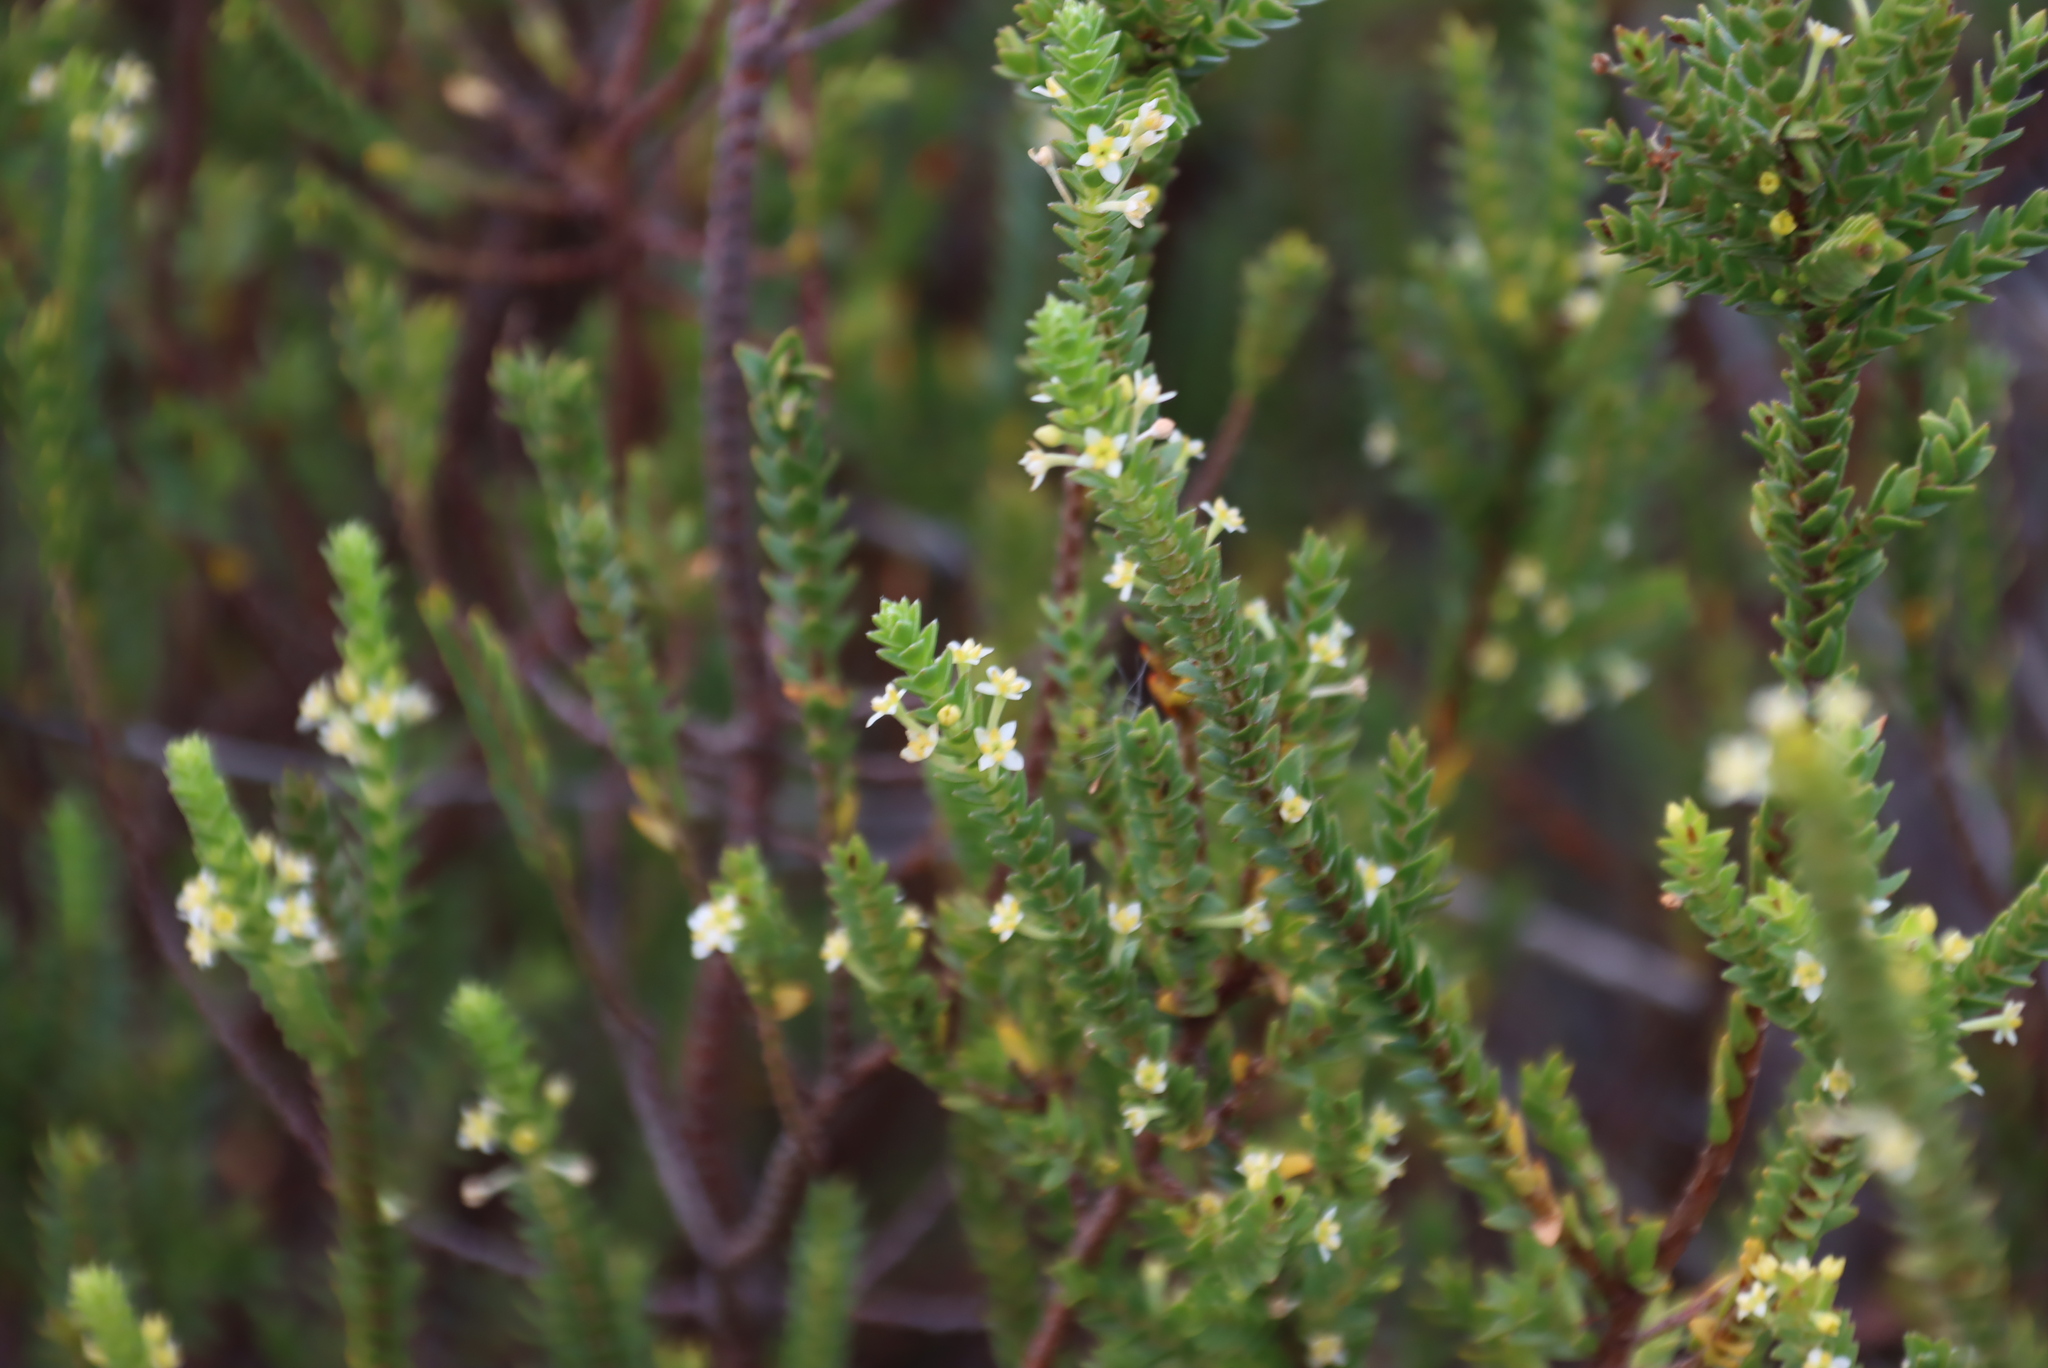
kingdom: Plantae
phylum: Tracheophyta
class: Magnoliopsida
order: Malvales
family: Thymelaeaceae
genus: Struthiola
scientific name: Struthiola striata
